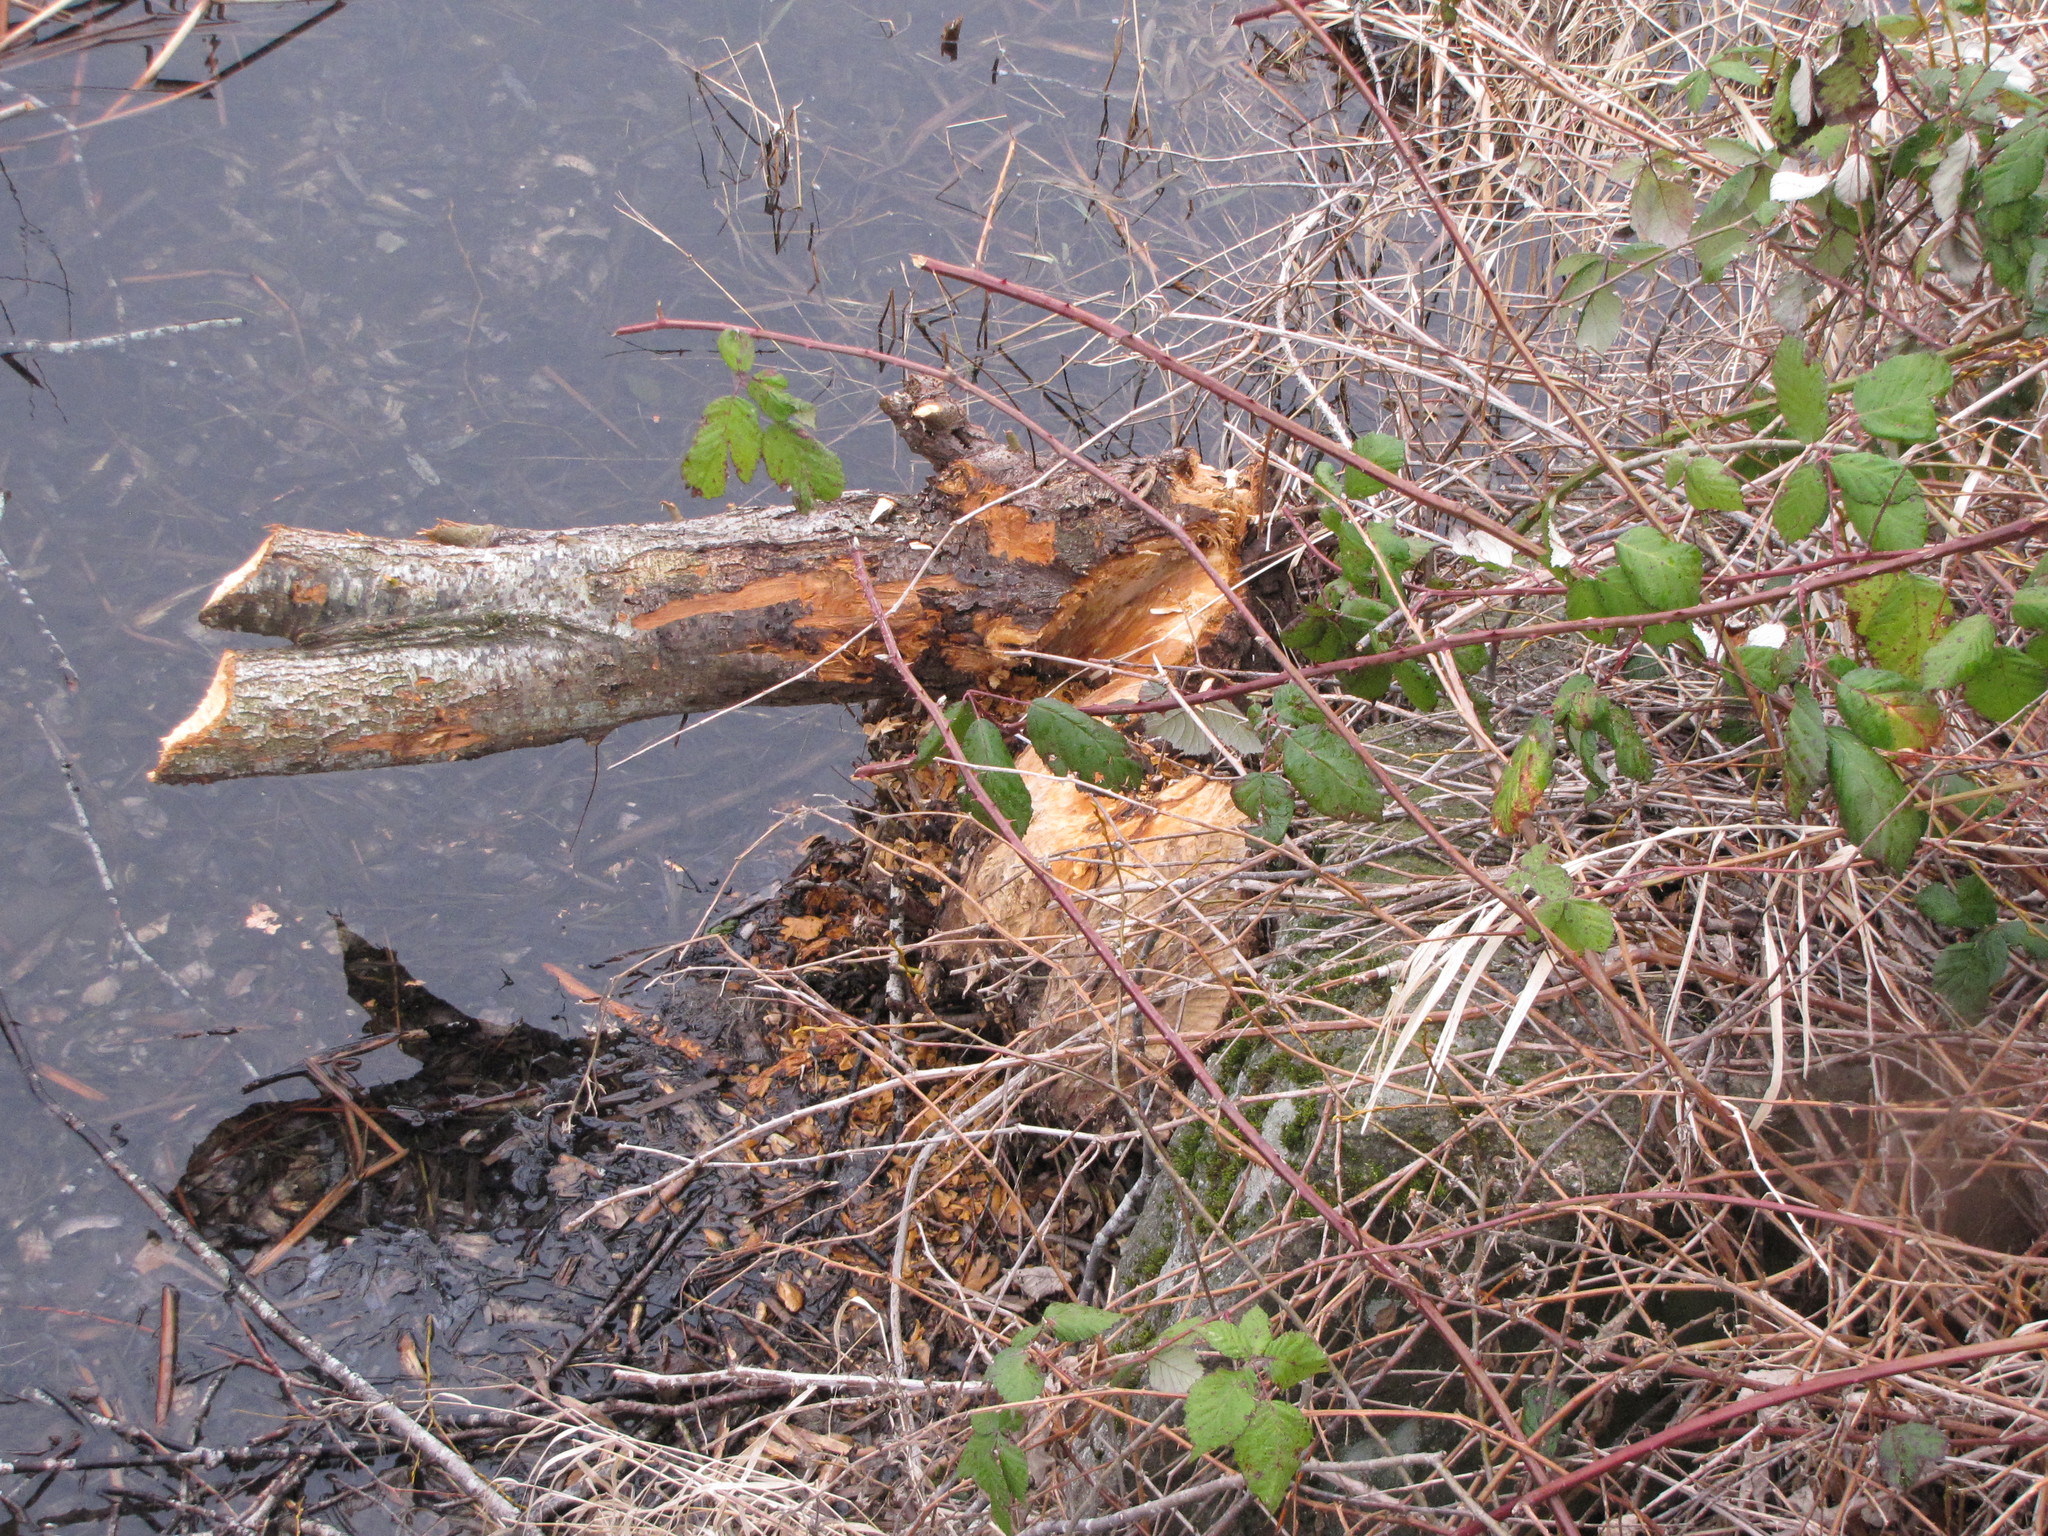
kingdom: Animalia
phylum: Chordata
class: Mammalia
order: Rodentia
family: Castoridae
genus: Castor
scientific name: Castor canadensis
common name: American beaver
